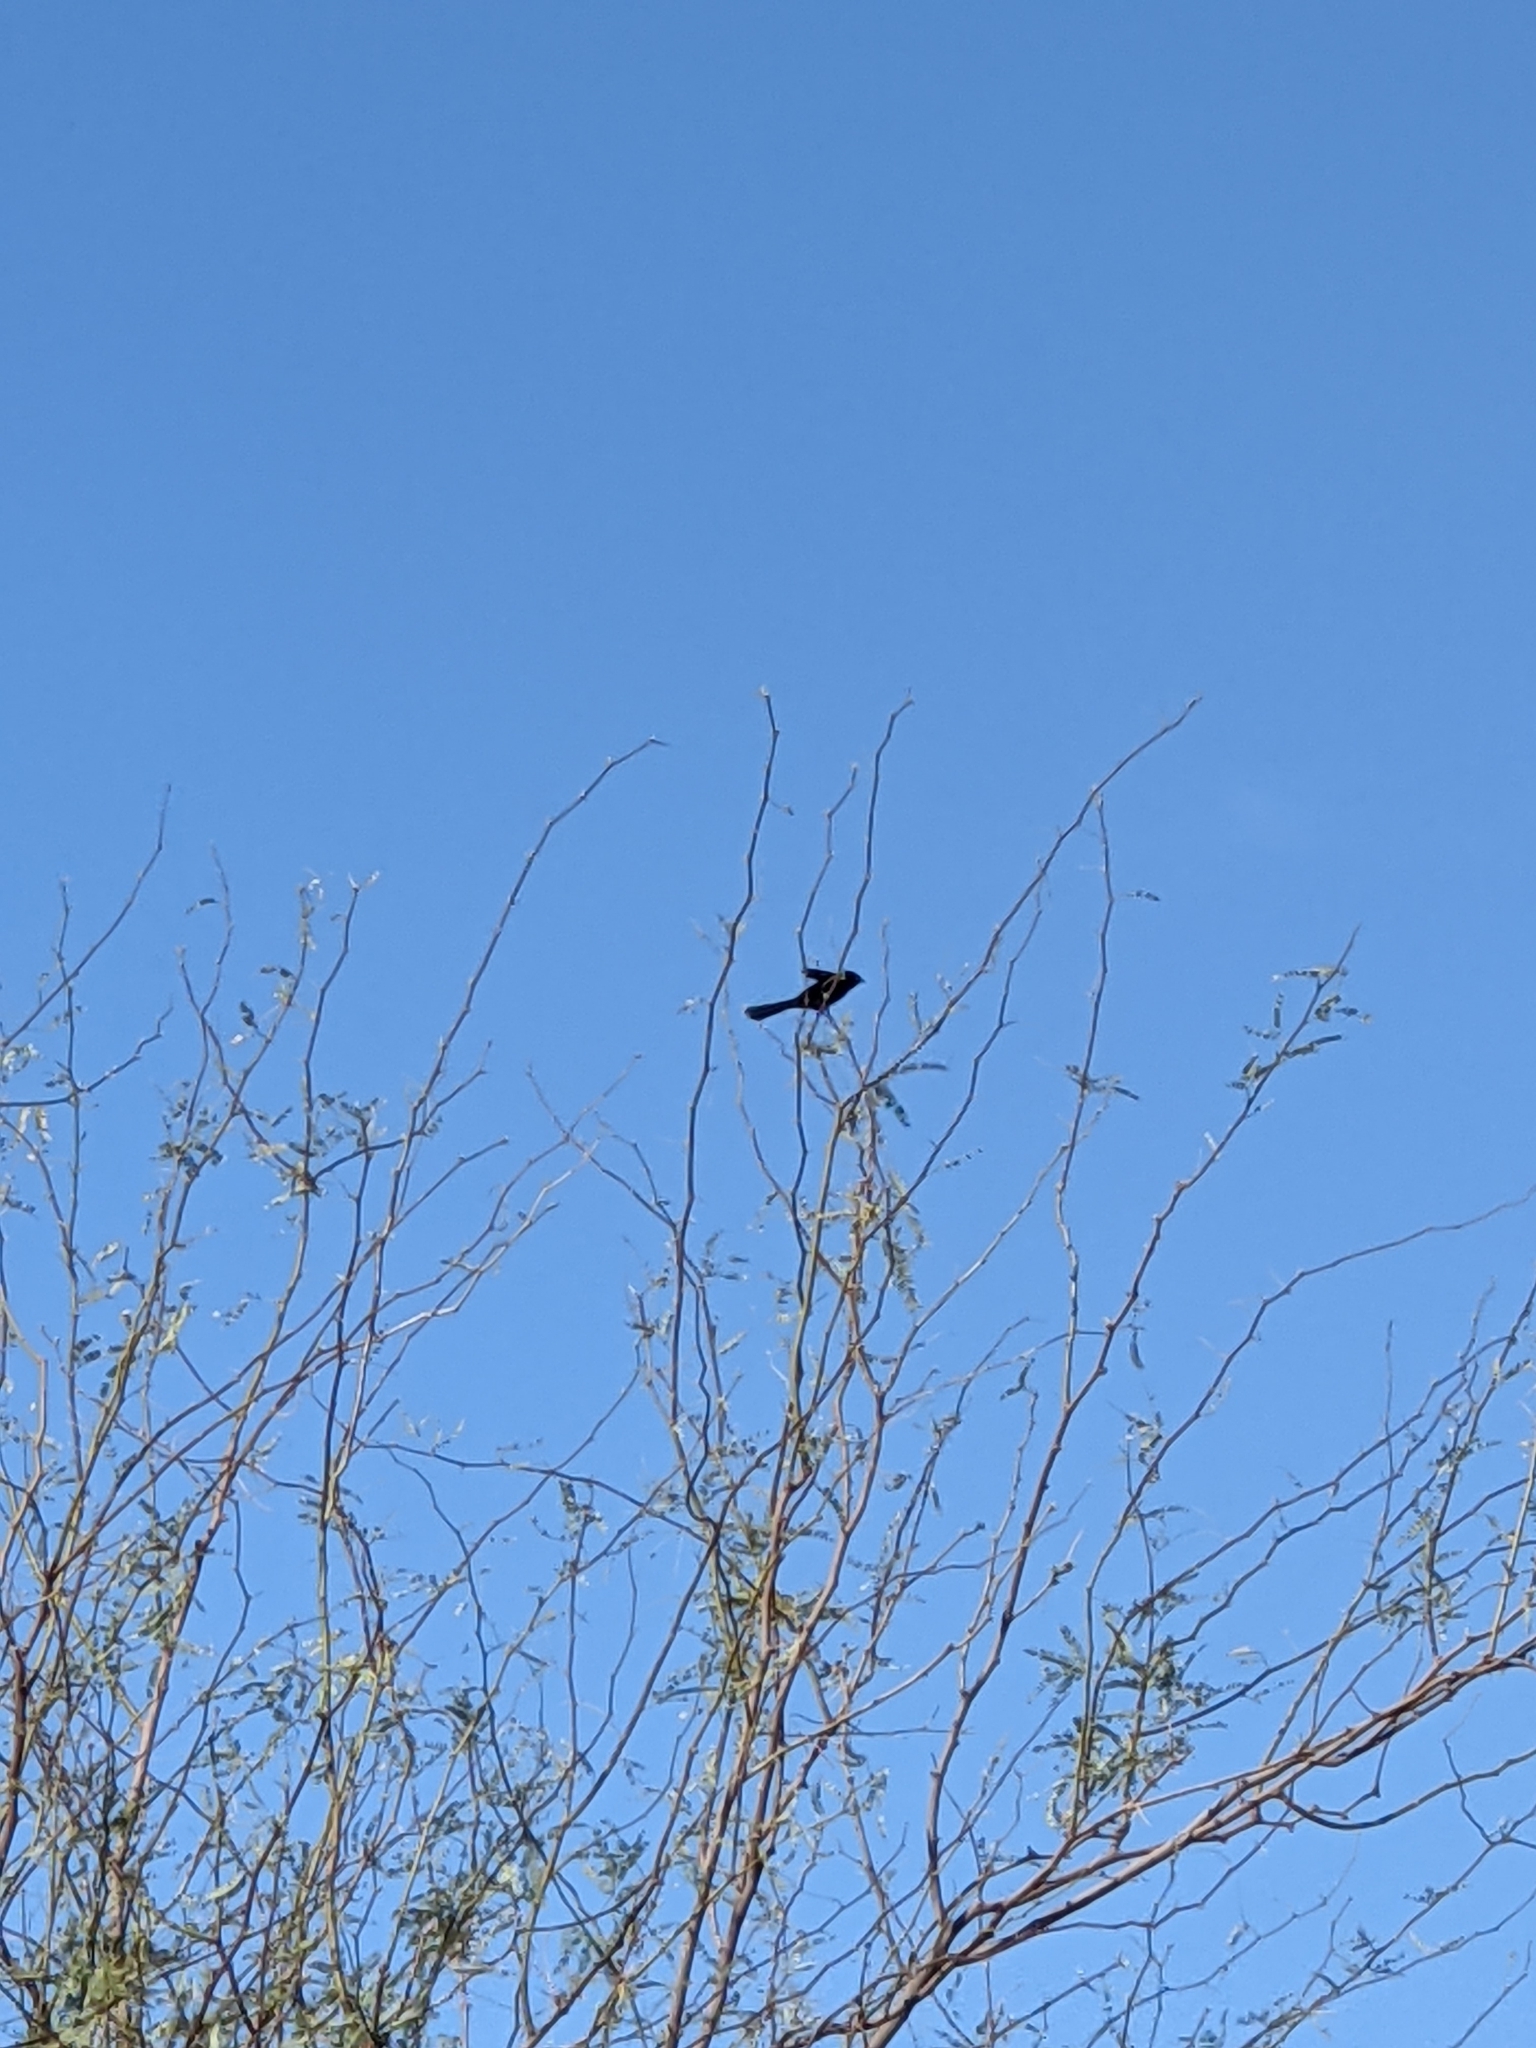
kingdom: Animalia
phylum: Chordata
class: Aves
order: Passeriformes
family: Ptilogonatidae
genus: Phainopepla
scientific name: Phainopepla nitens
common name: Phainopepla
